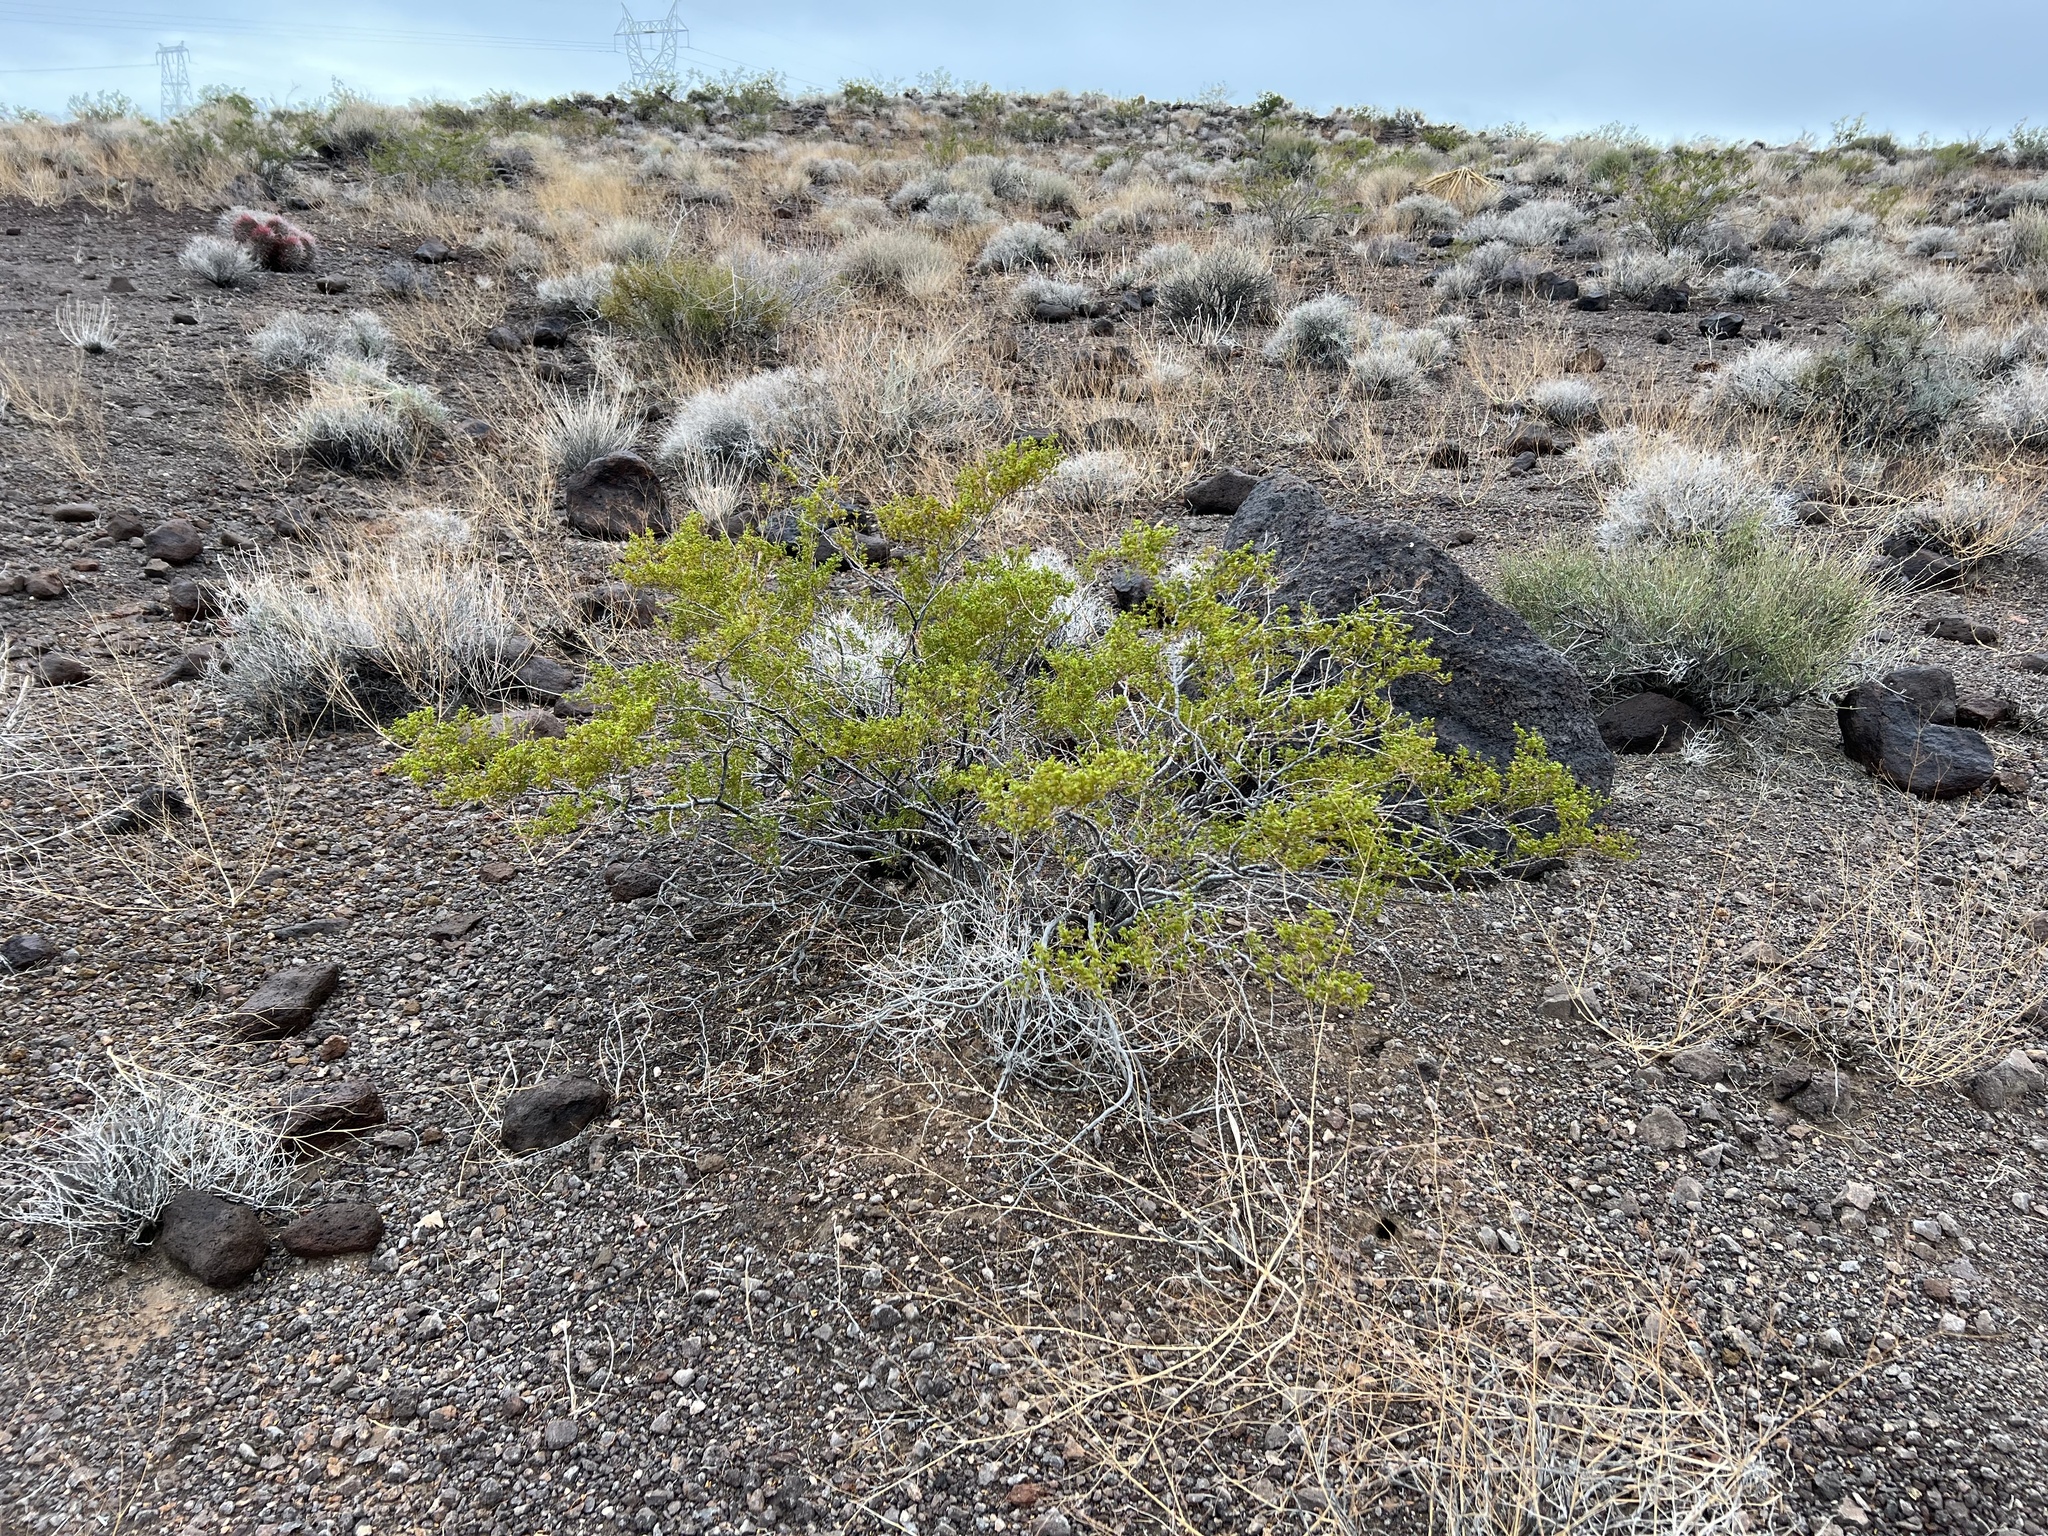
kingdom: Plantae
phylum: Tracheophyta
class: Magnoliopsida
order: Zygophyllales
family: Zygophyllaceae
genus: Larrea
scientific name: Larrea tridentata
